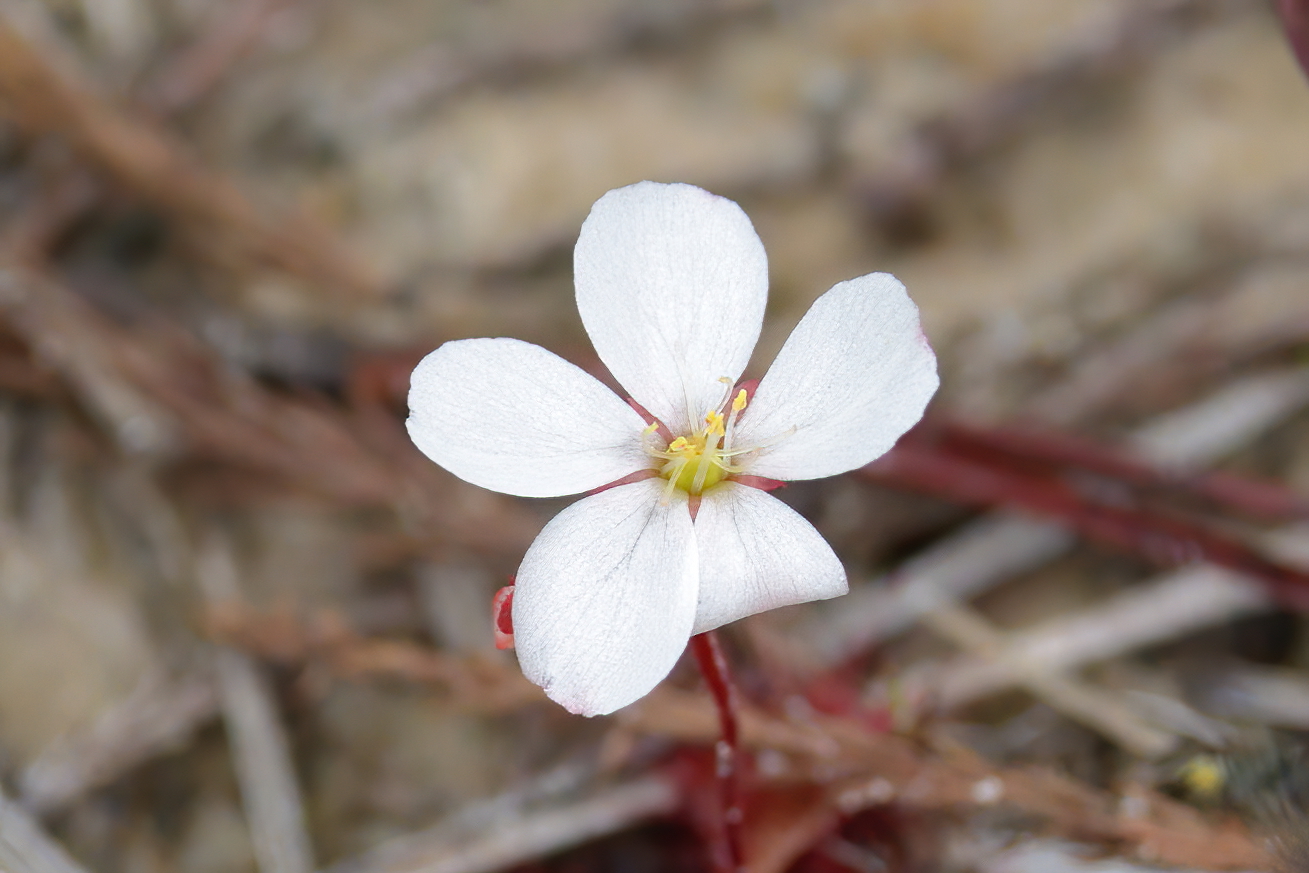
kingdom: Plantae
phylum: Tracheophyta
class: Magnoliopsida
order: Caryophyllales
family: Droseraceae
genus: Drosera
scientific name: Drosera brevifolia
